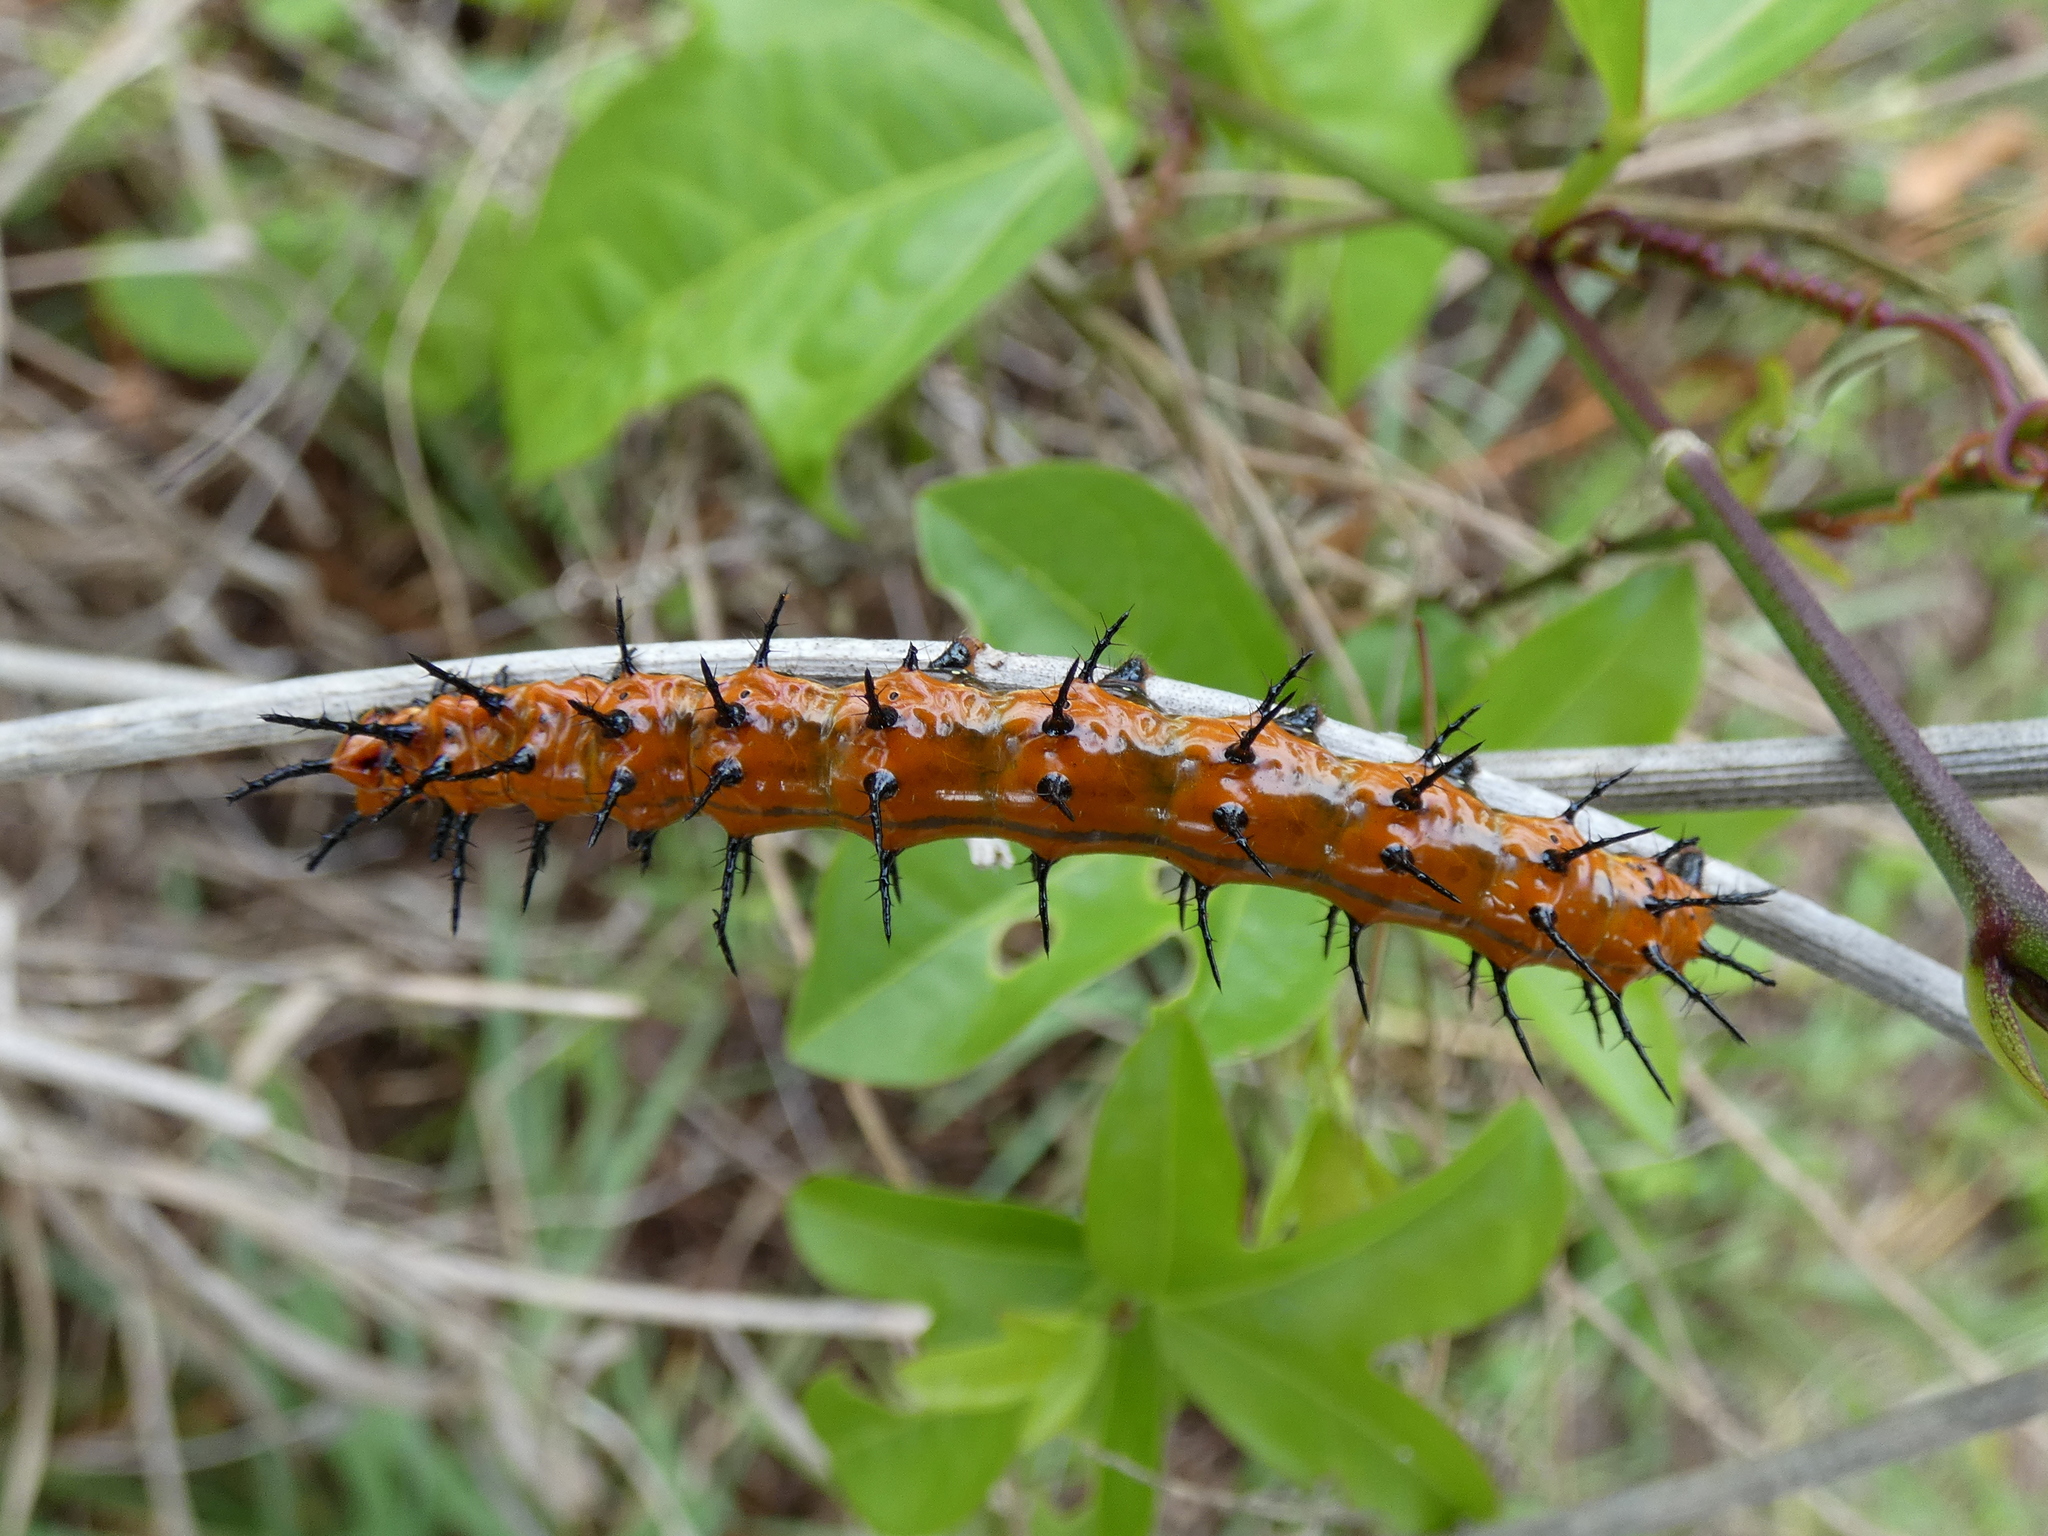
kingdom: Animalia
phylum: Arthropoda
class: Insecta
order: Lepidoptera
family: Nymphalidae
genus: Dione
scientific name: Dione vanillae
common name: Gulf fritillary
